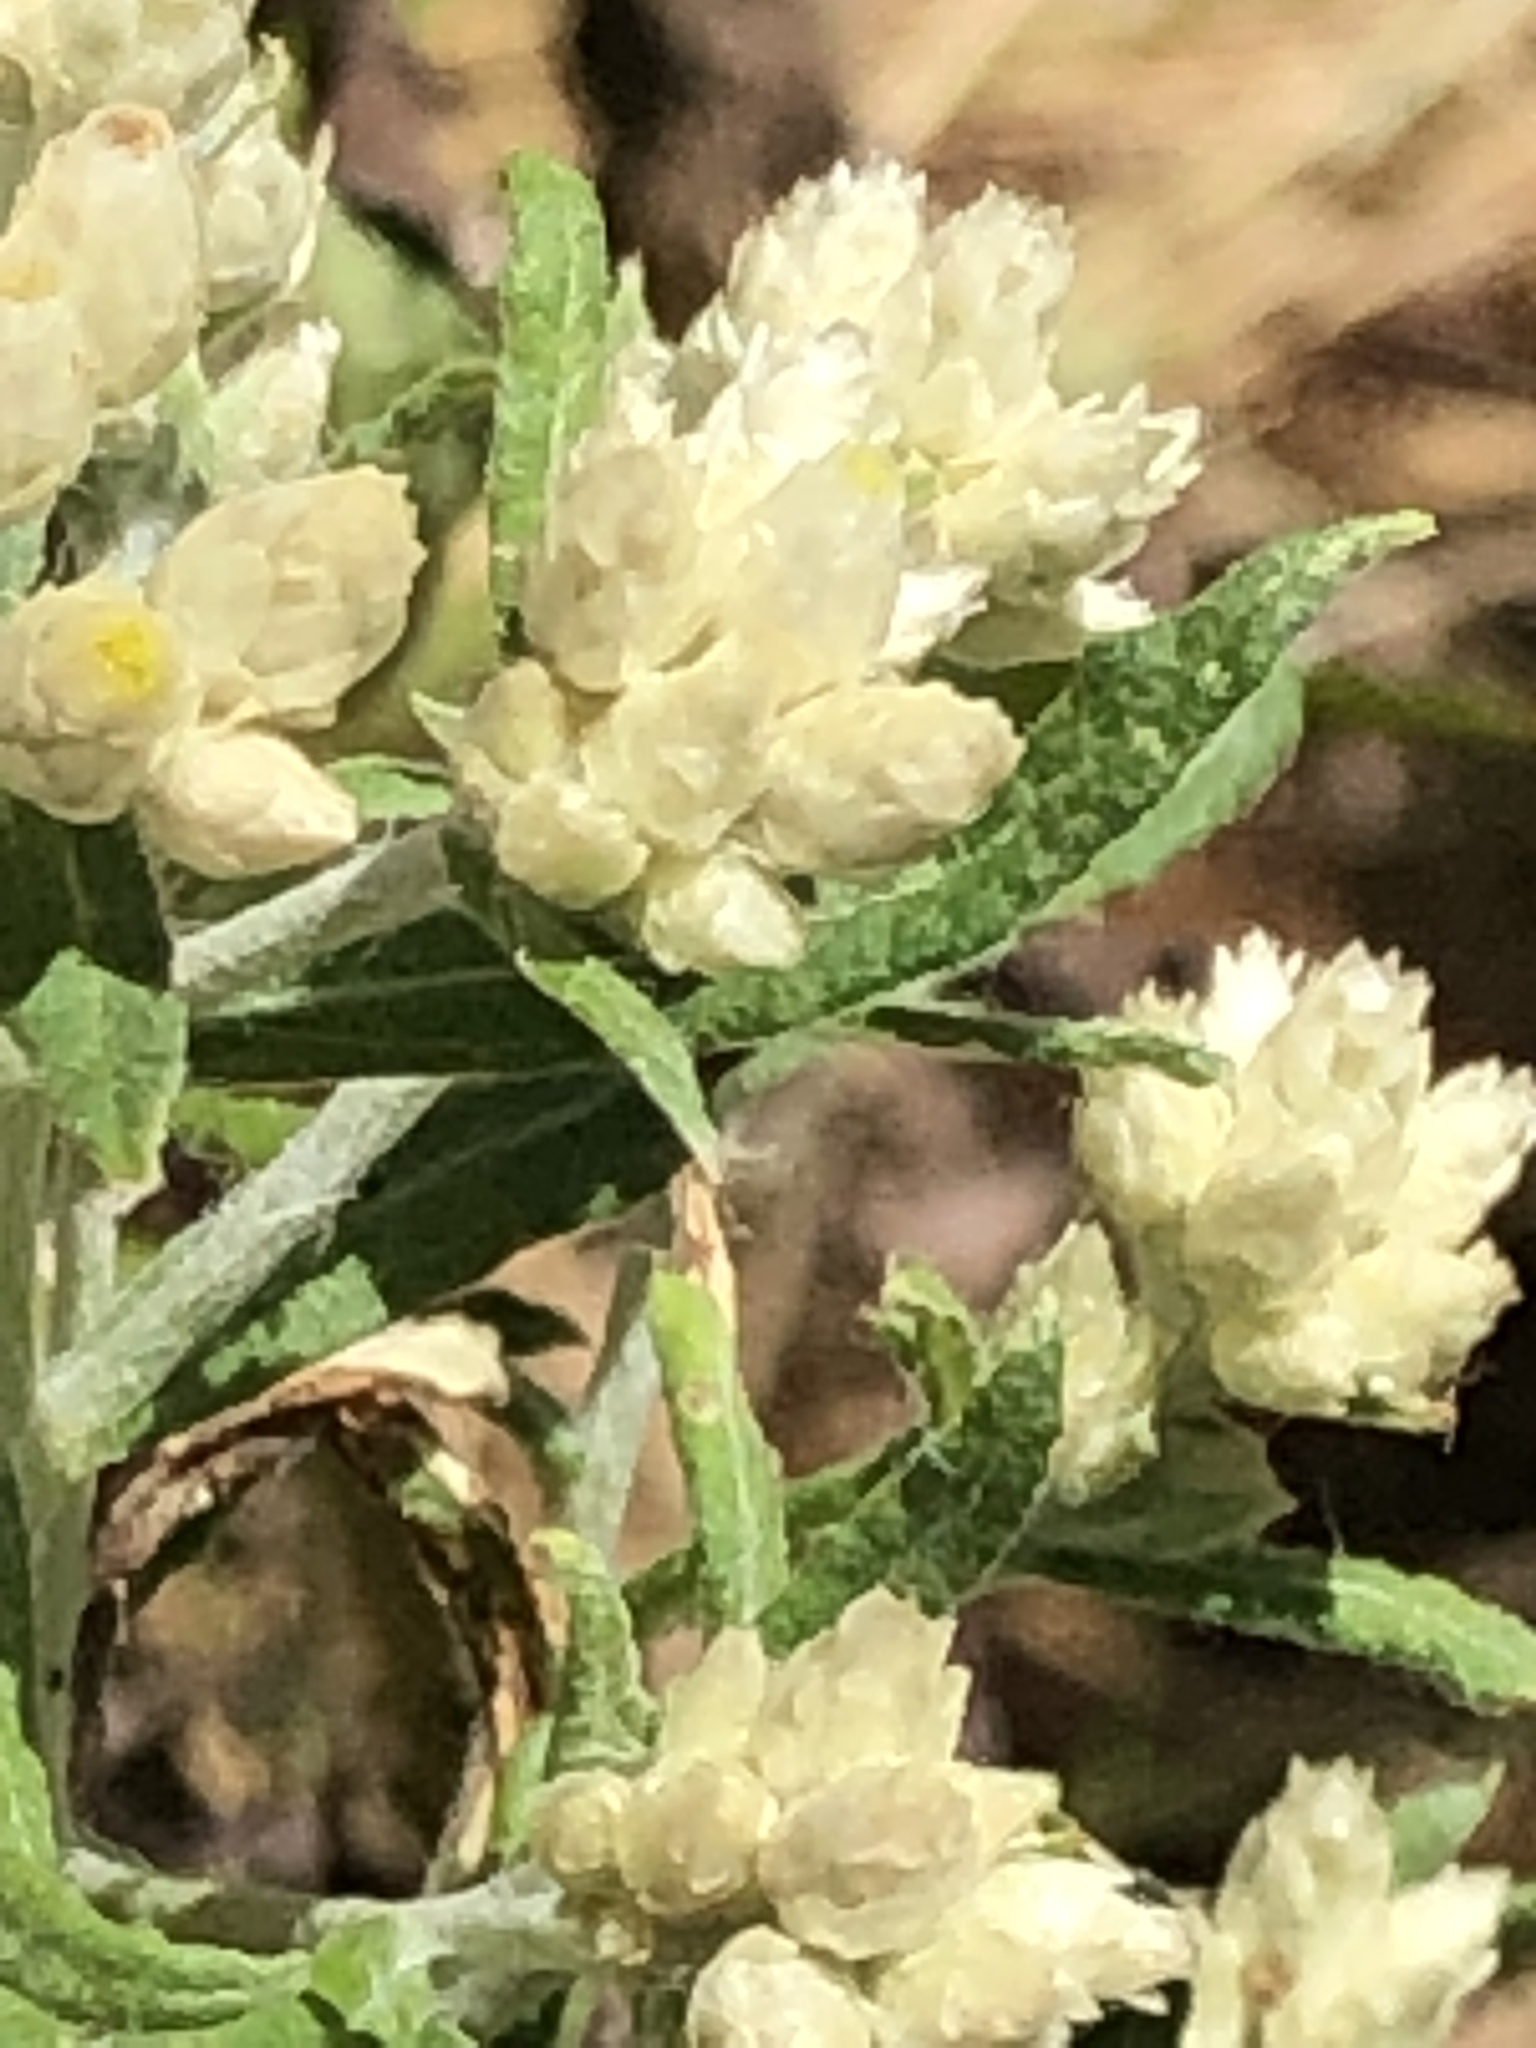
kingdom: Plantae
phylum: Tracheophyta
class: Magnoliopsida
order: Asterales
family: Asteraceae
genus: Pseudognaphalium
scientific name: Pseudognaphalium obtusifolium
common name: Eastern rabbit-tobacco
